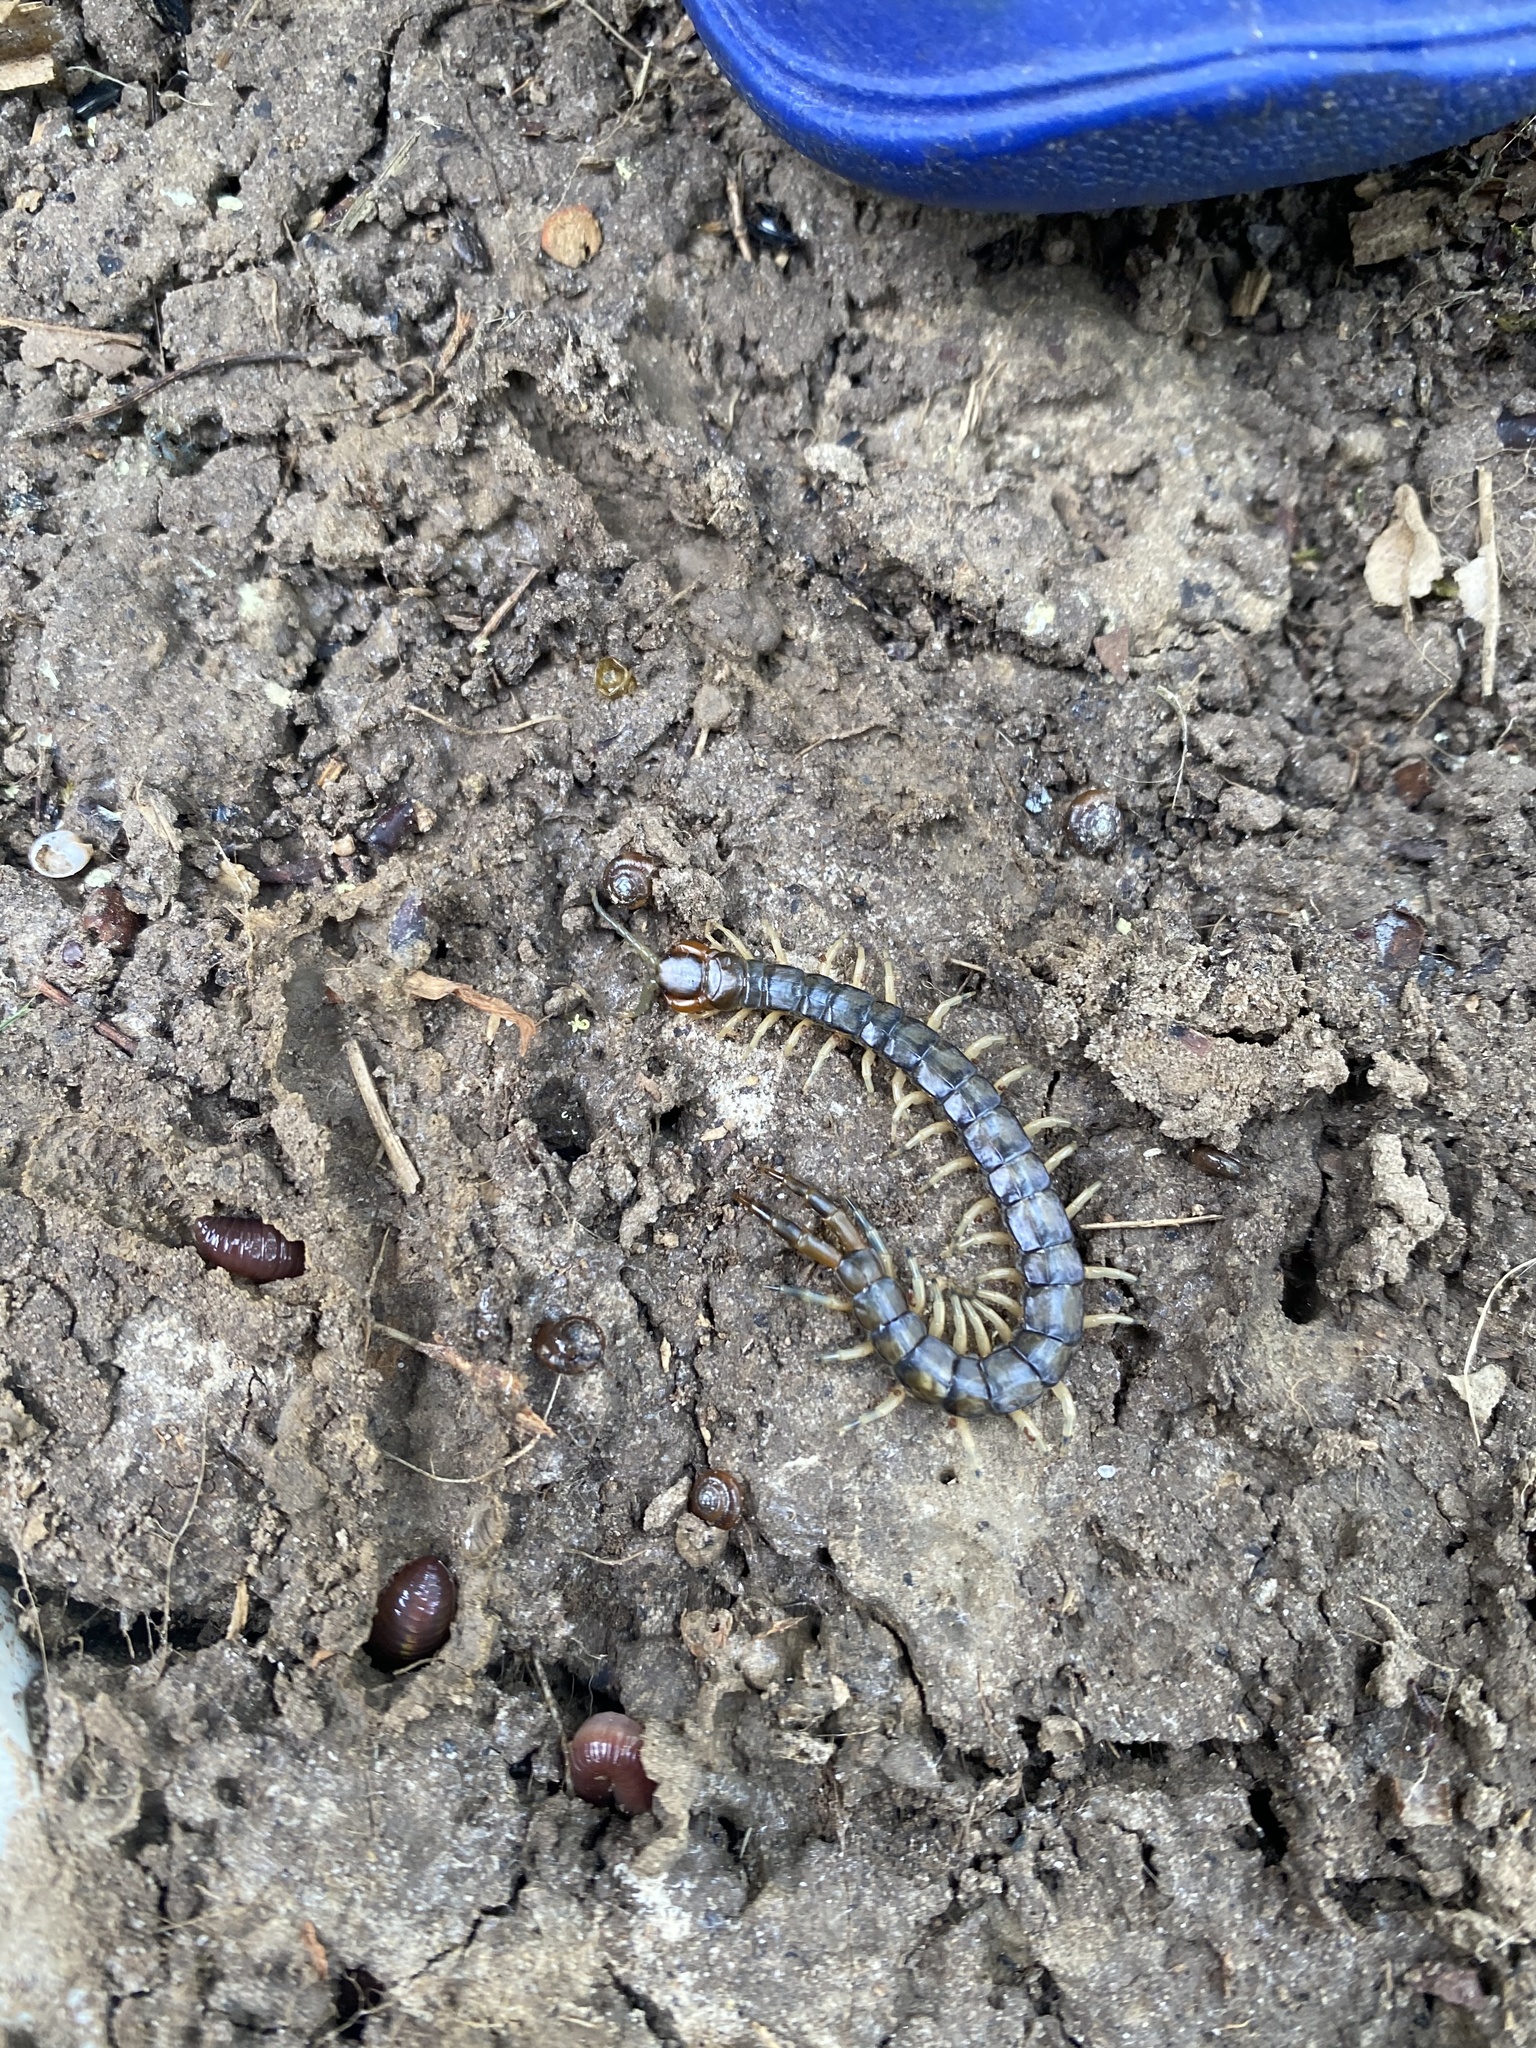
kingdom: Animalia
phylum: Arthropoda
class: Chilopoda
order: Scolopendromorpha
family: Scolopendridae
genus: Hemiscolopendra
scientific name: Hemiscolopendra marginata
